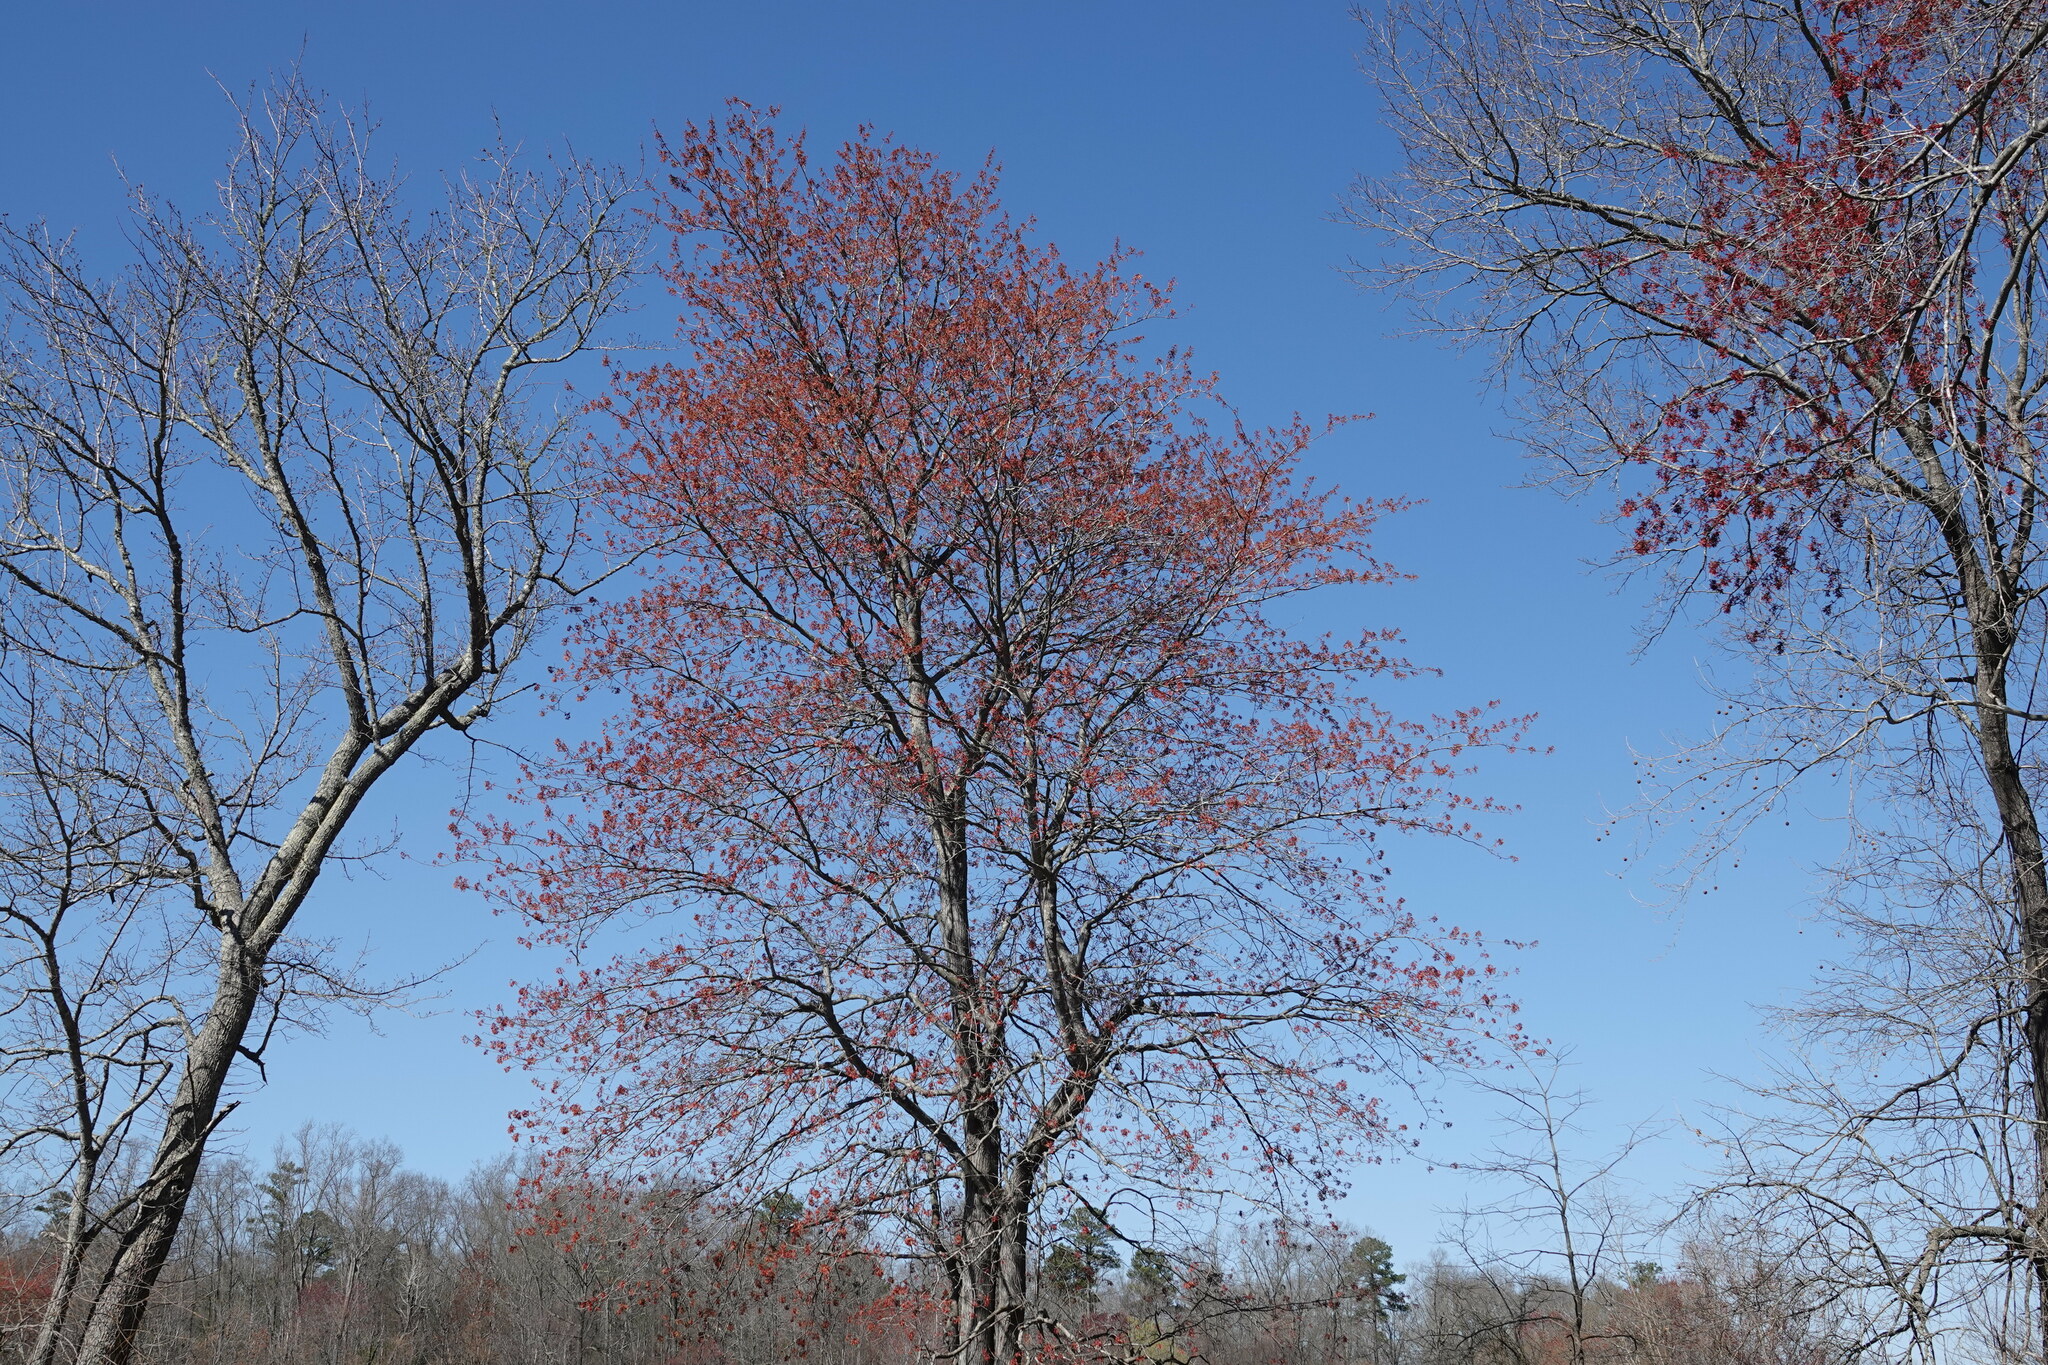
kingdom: Plantae
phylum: Tracheophyta
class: Magnoliopsida
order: Sapindales
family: Sapindaceae
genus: Acer
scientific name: Acer rubrum
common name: Red maple
